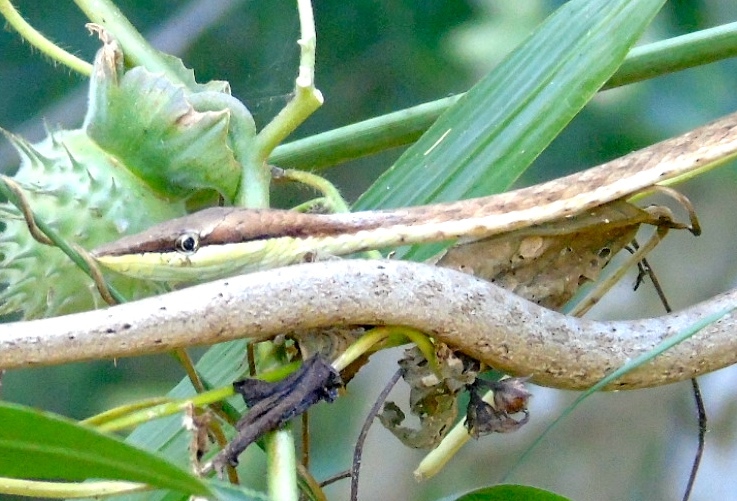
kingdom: Animalia
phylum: Chordata
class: Squamata
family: Colubridae
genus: Oxybelis
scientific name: Oxybelis microphthalmus
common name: Thrornscrub vine snake
